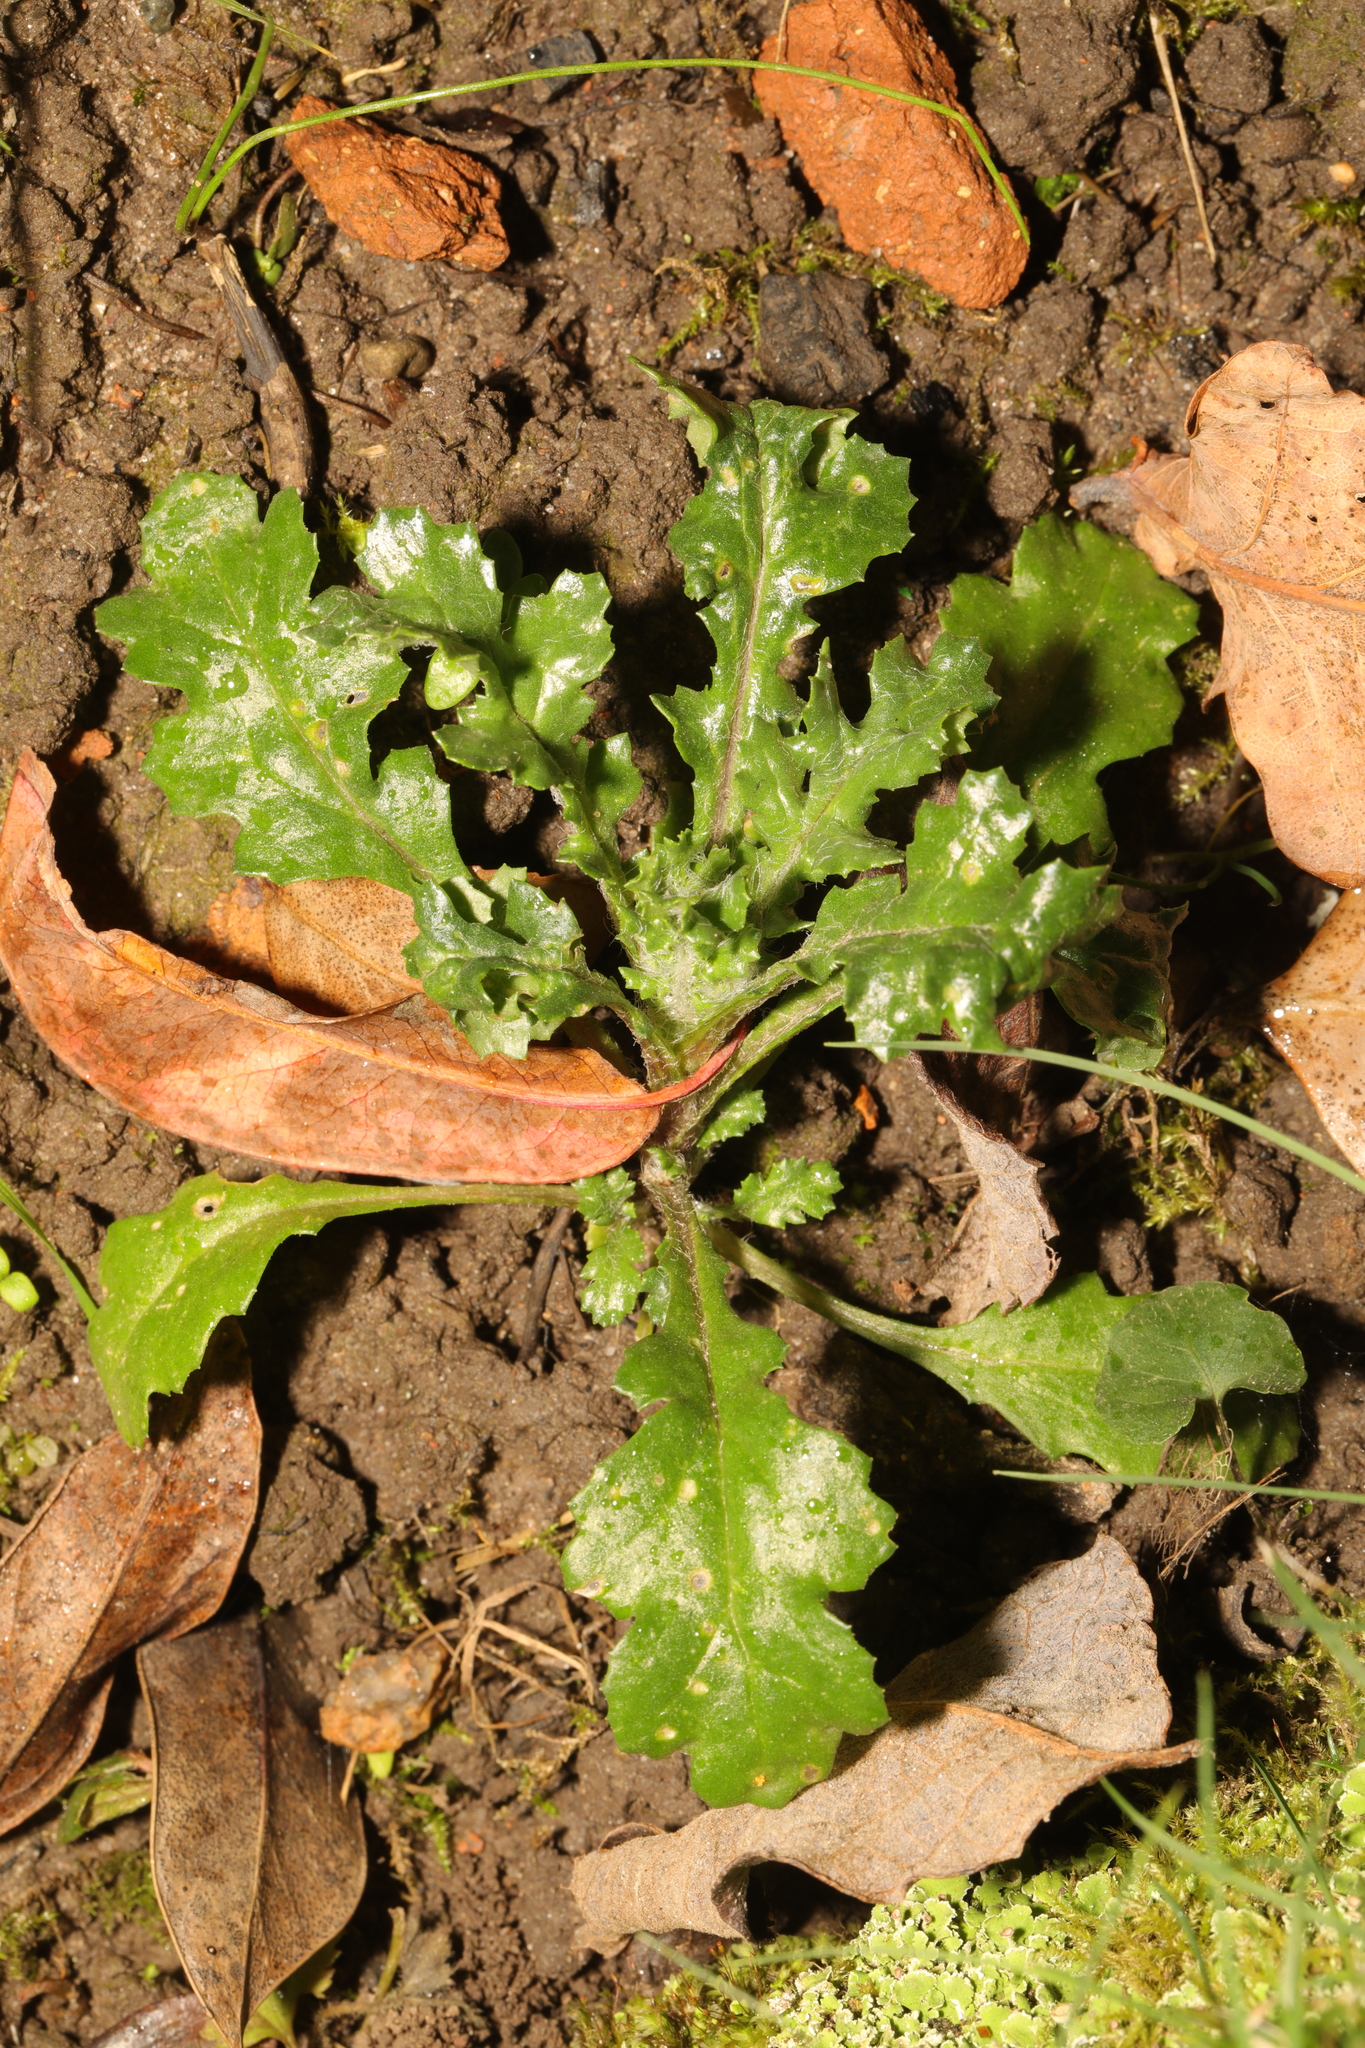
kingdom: Plantae
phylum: Tracheophyta
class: Magnoliopsida
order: Asterales
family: Asteraceae
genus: Senecio
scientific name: Senecio vulgaris
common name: Old-man-in-the-spring
